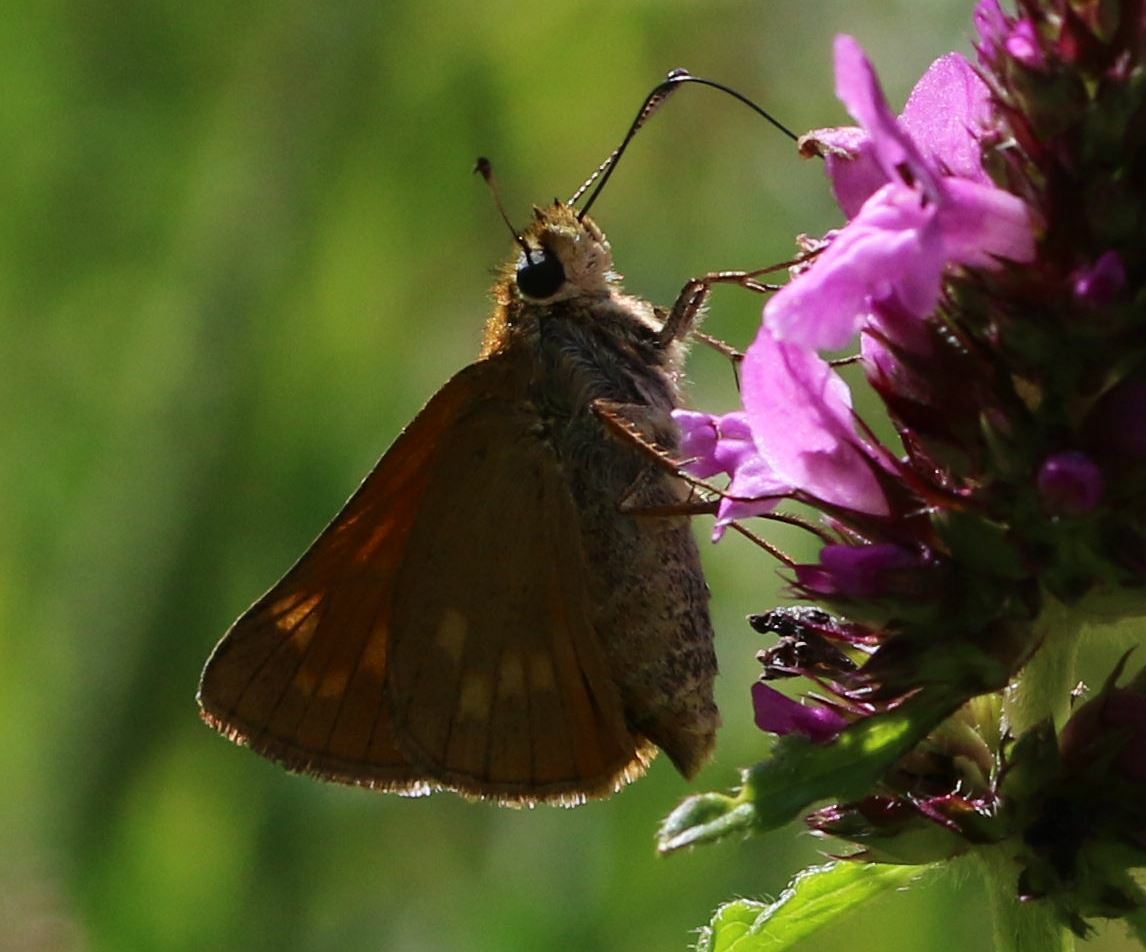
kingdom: Animalia
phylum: Arthropoda
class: Insecta
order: Lepidoptera
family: Hesperiidae
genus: Ochlodes
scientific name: Ochlodes venata
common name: Large skipper
